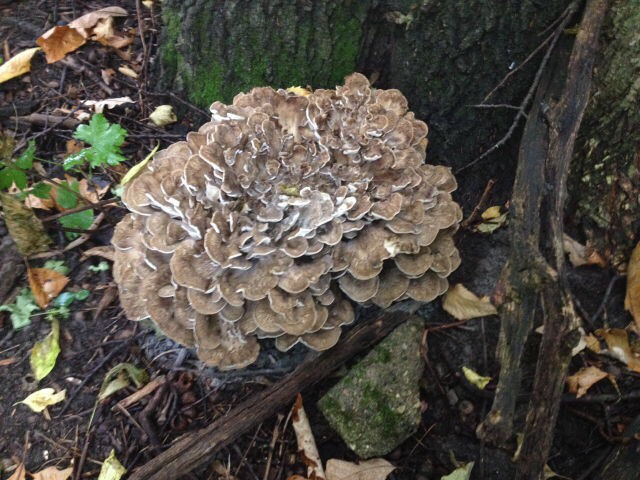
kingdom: Fungi
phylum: Basidiomycota
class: Agaricomycetes
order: Polyporales
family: Grifolaceae
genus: Grifola
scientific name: Grifola frondosa
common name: Hen of the woods
